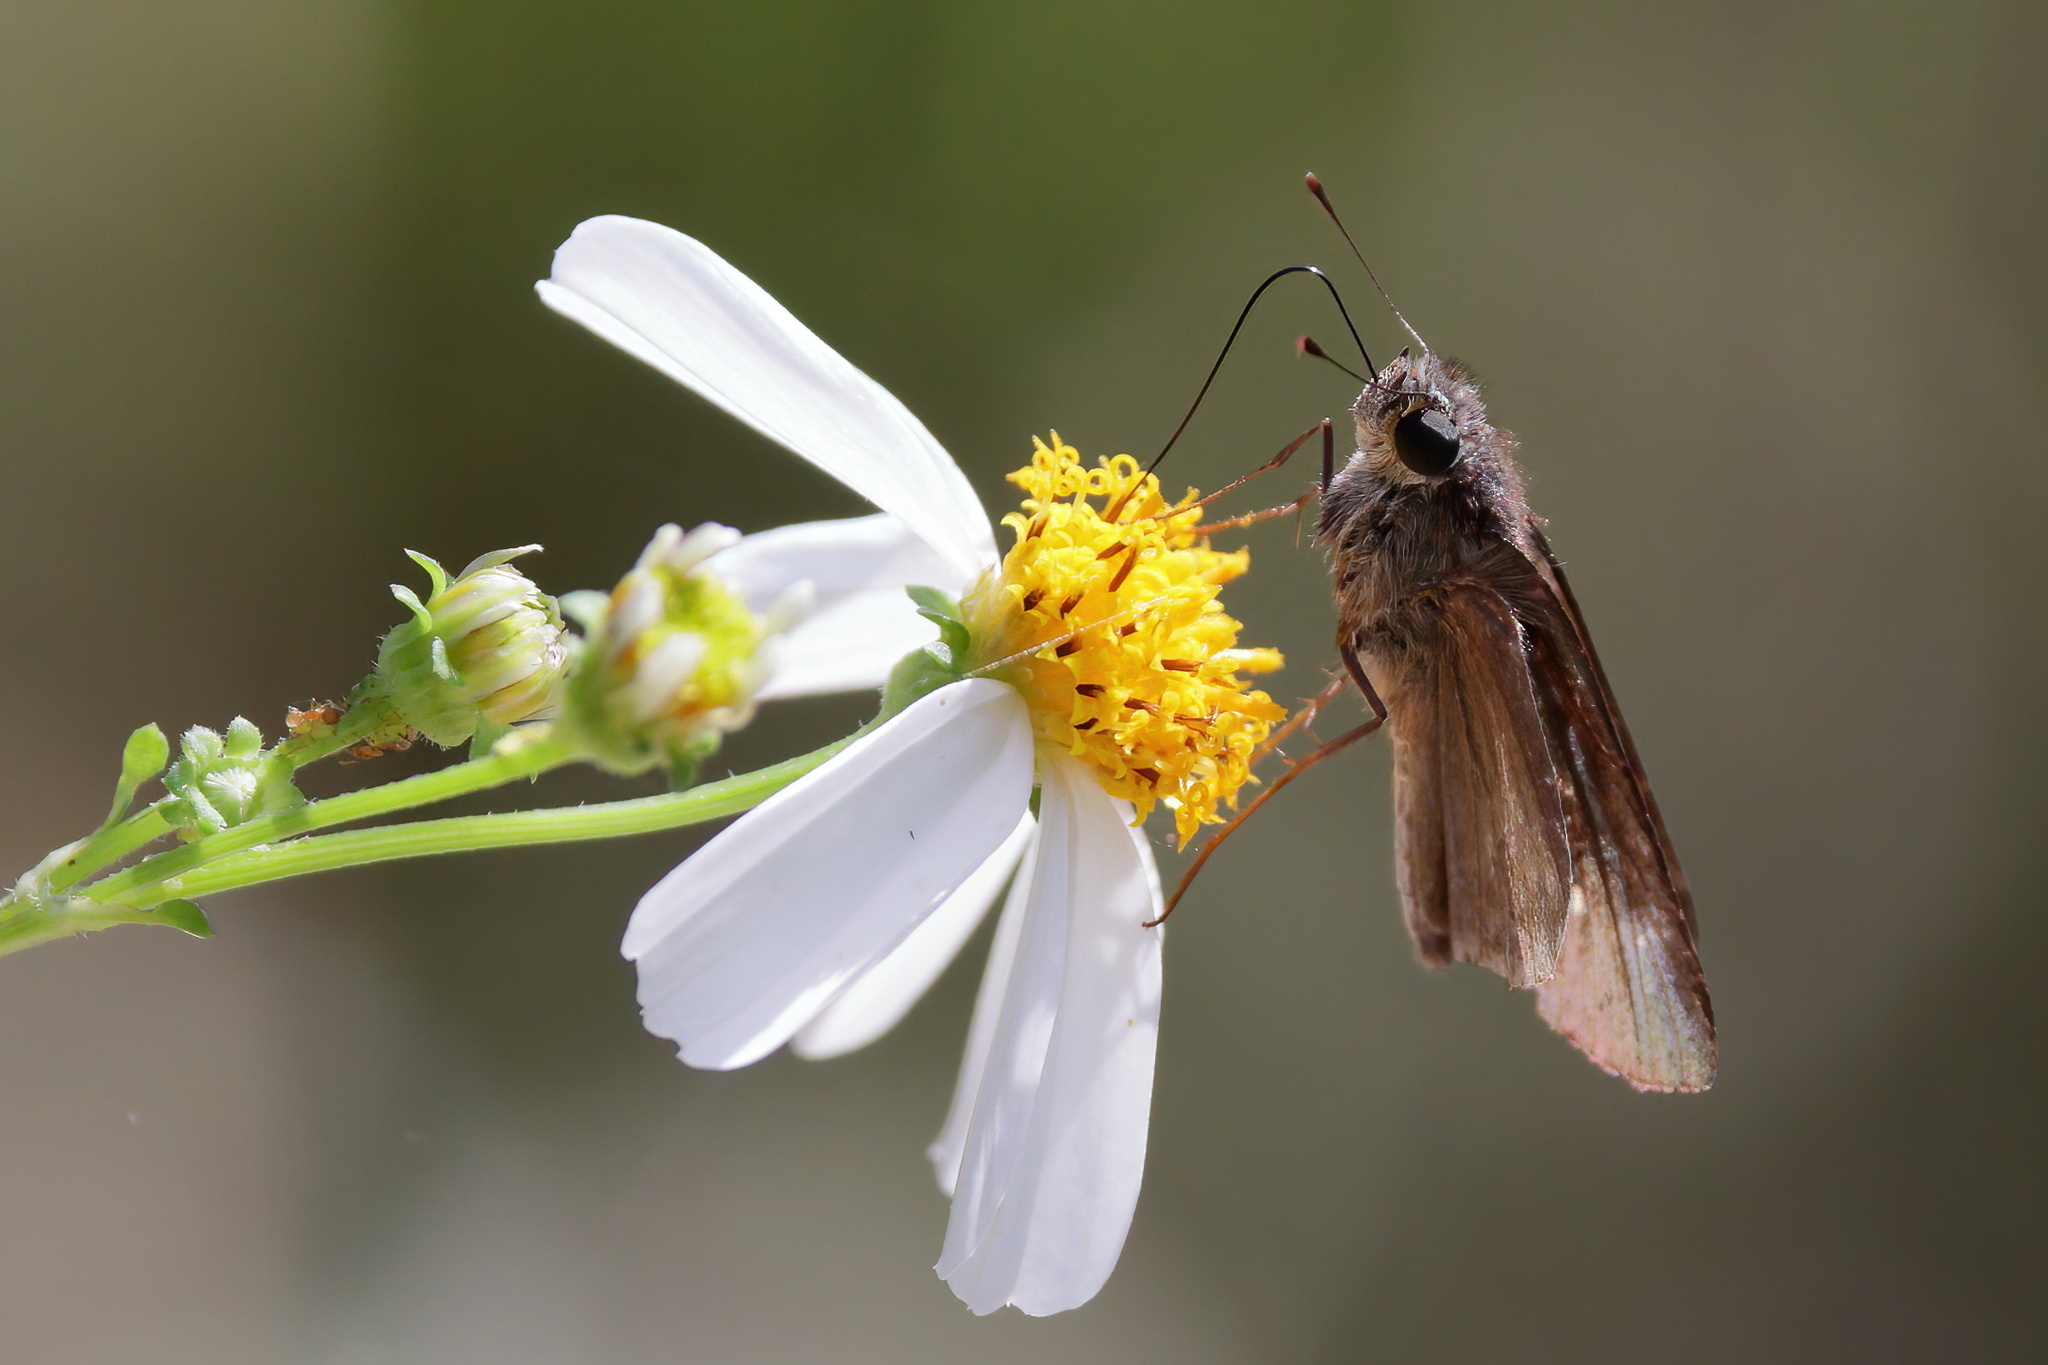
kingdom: Animalia
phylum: Arthropoda
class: Insecta
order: Lepidoptera
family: Hesperiidae
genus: Panoquina
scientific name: Panoquina ocola
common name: Ocola skipper
